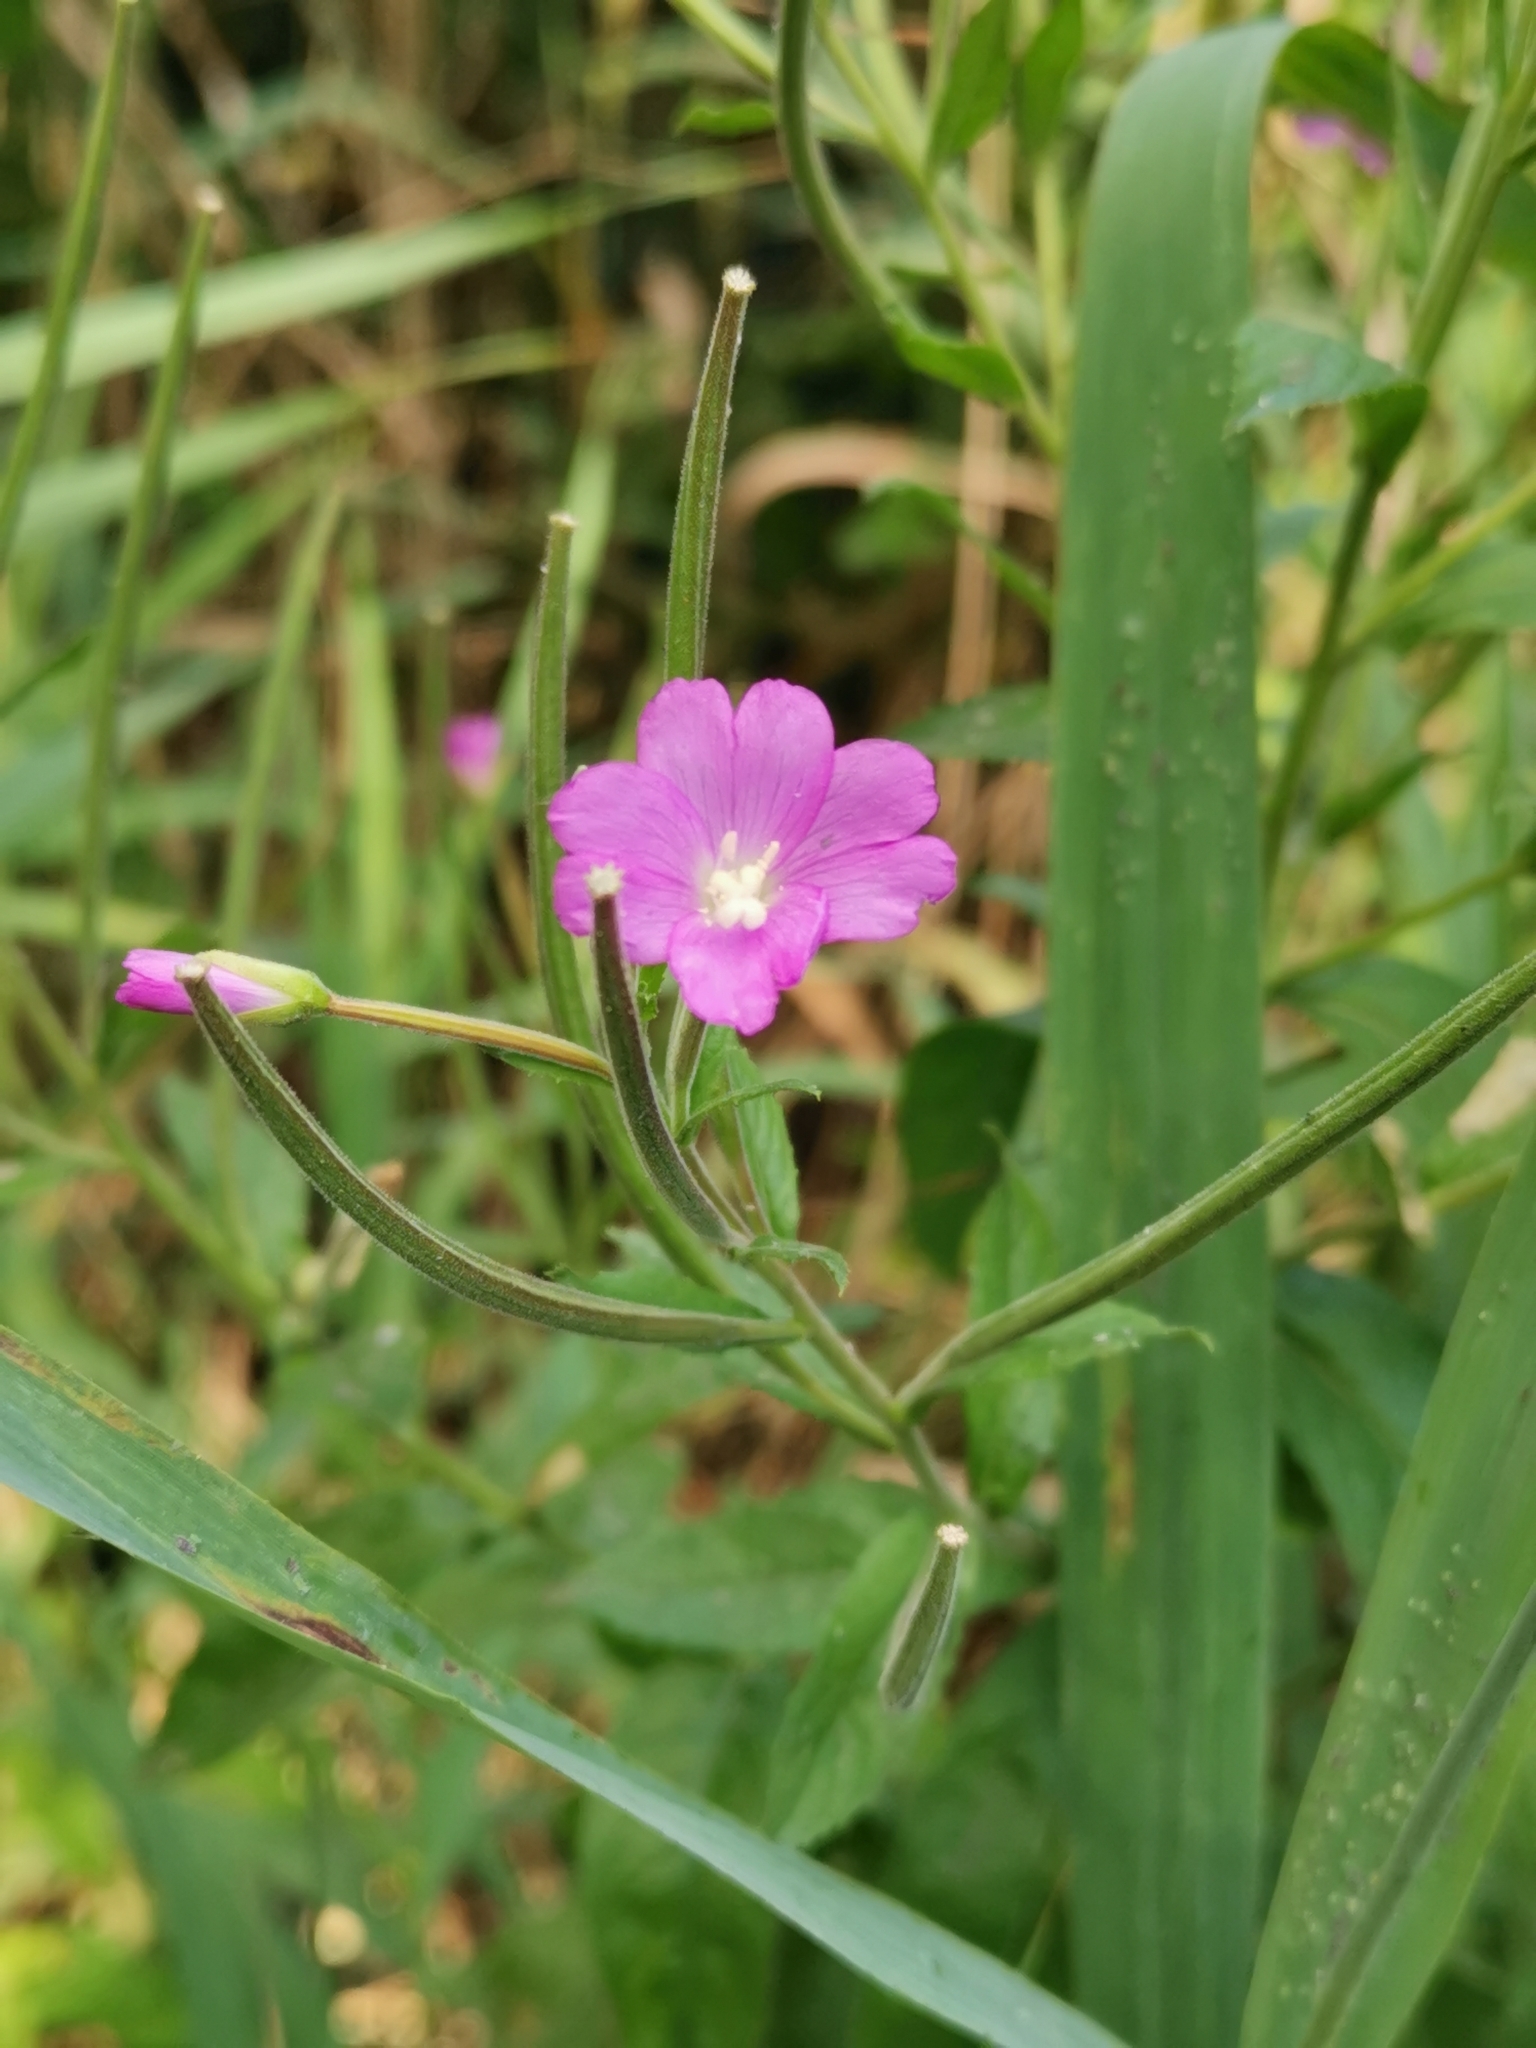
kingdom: Plantae
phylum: Tracheophyta
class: Magnoliopsida
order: Myrtales
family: Onagraceae
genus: Epilobium
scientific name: Epilobium hirsutum
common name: Great willowherb
